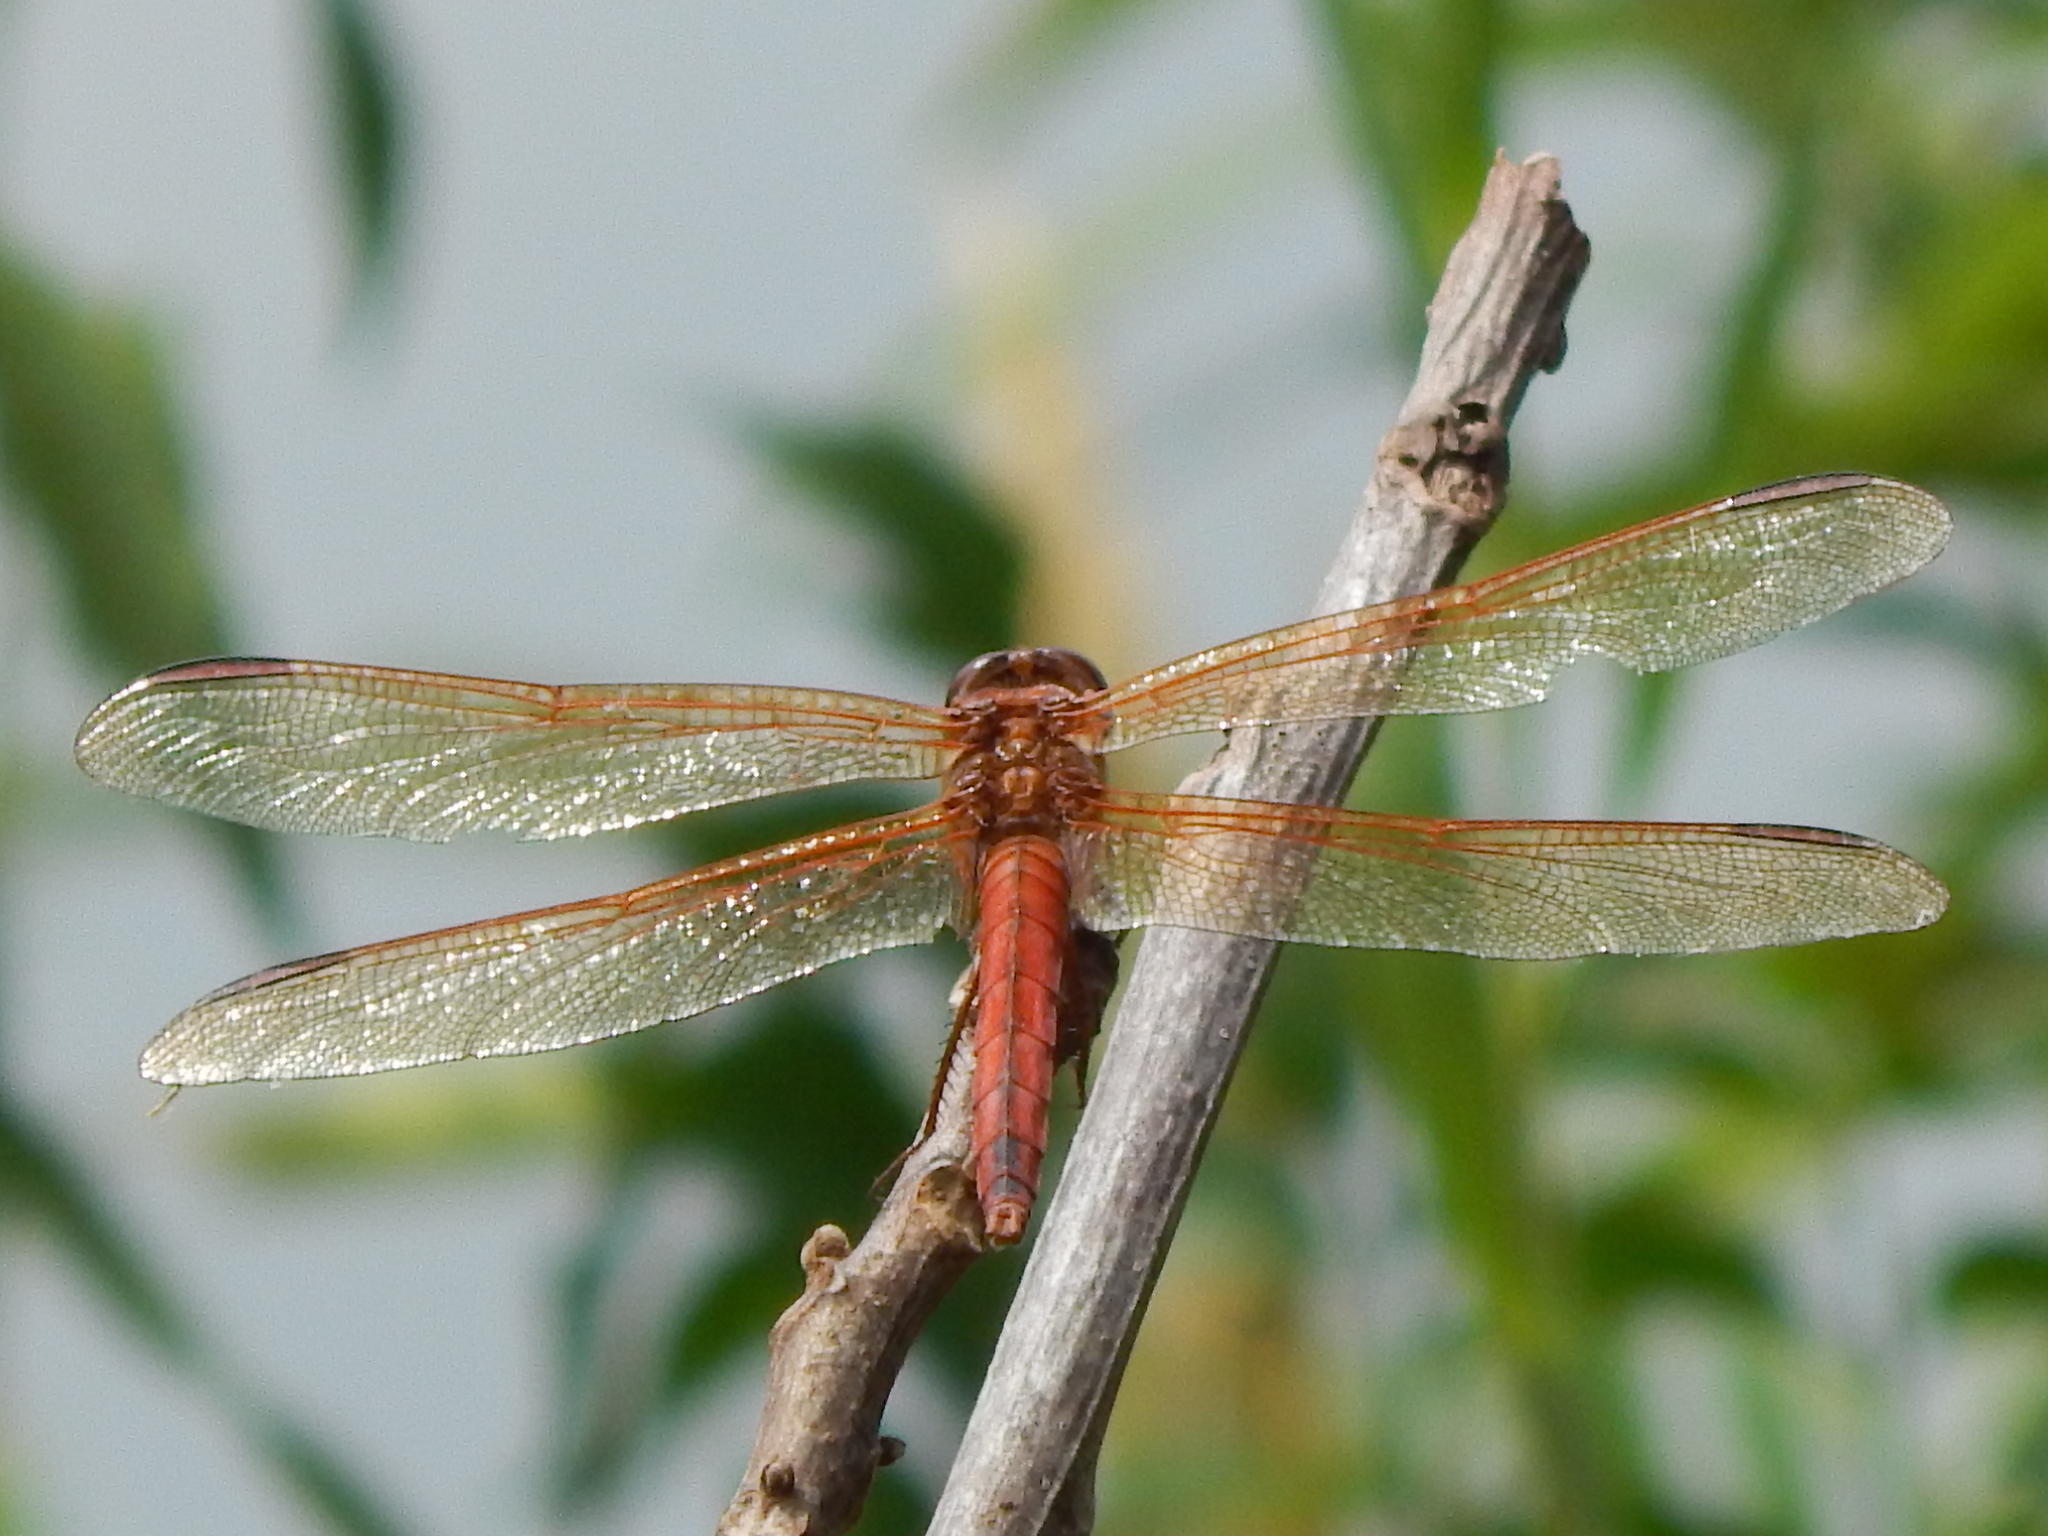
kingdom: Animalia
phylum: Arthropoda
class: Insecta
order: Odonata
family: Libellulidae
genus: Libellula
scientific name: Libellula needhami
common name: Needham's skimmer
